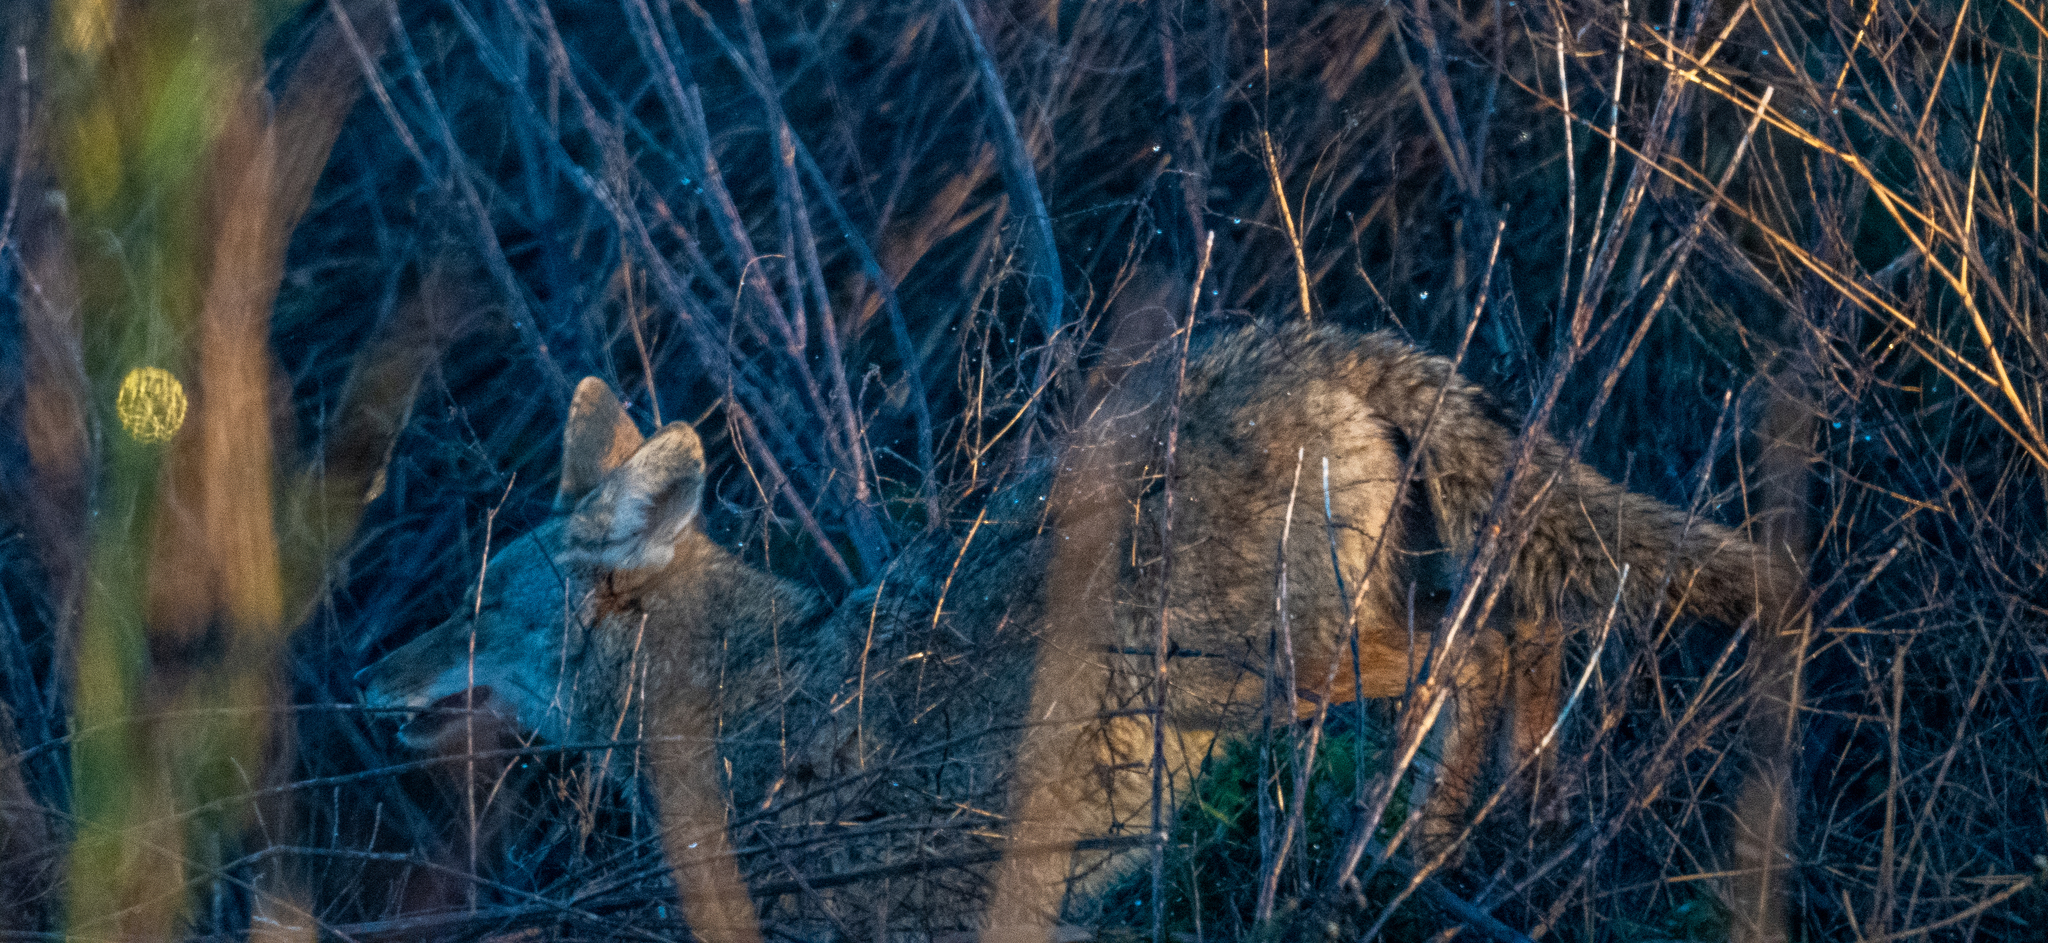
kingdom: Animalia
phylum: Chordata
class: Mammalia
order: Carnivora
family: Canidae
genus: Canis
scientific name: Canis latrans
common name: Coyote
